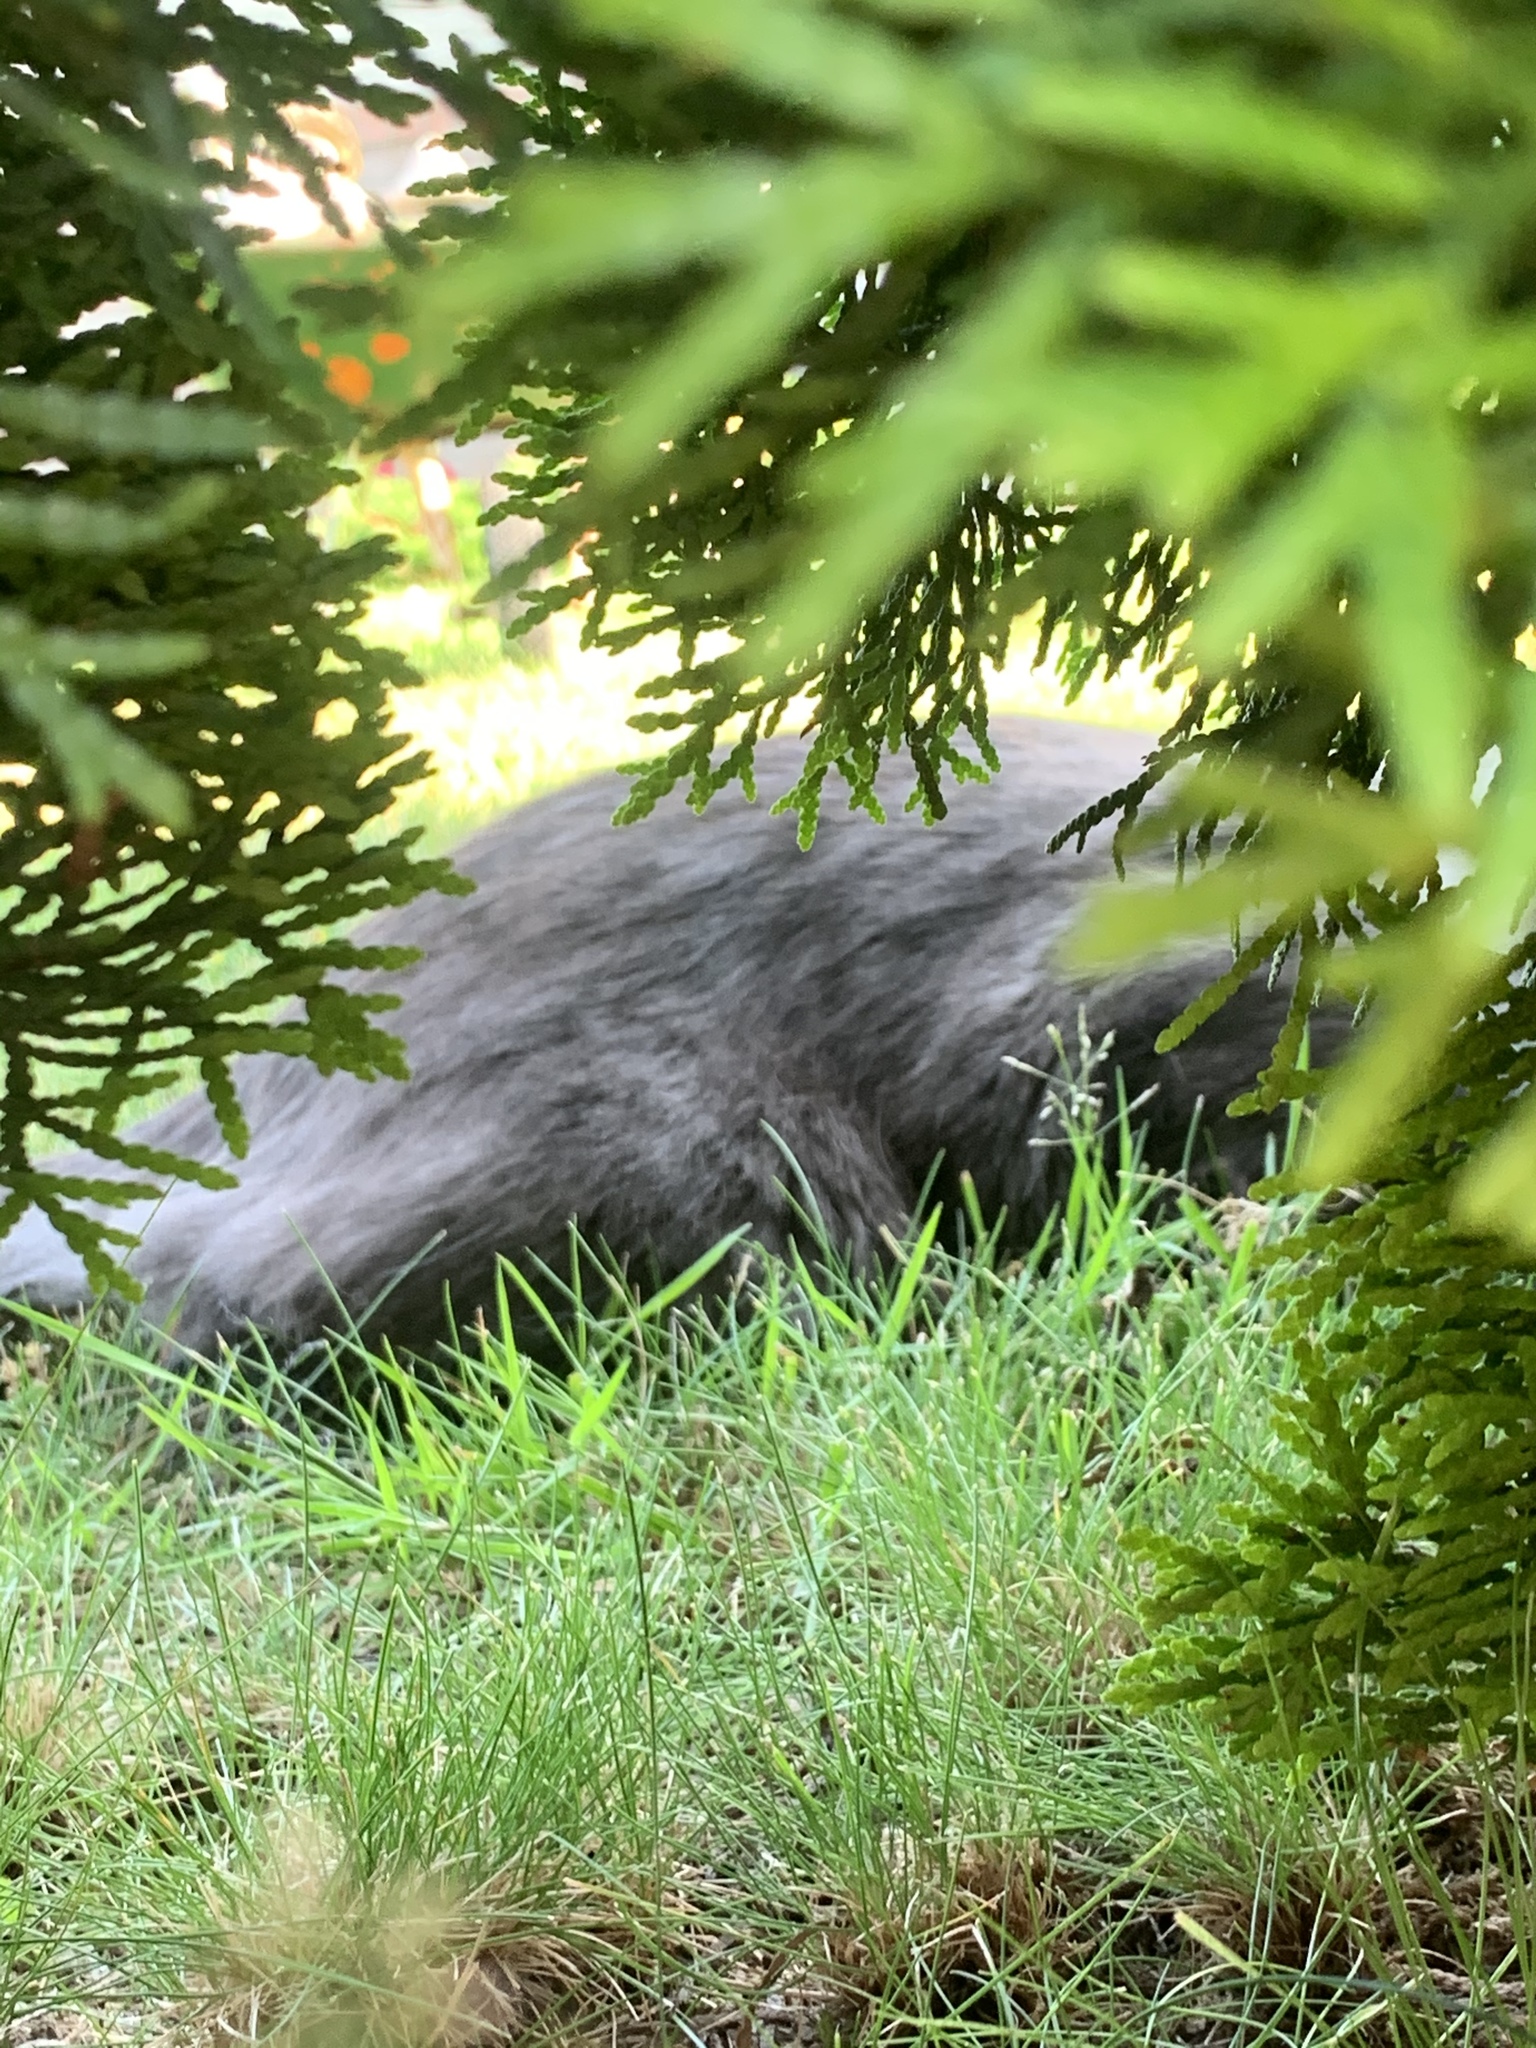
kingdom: Animalia
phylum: Chordata
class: Mammalia
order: Carnivora
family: Felidae
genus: Felis
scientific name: Felis catus
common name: Domestic cat
